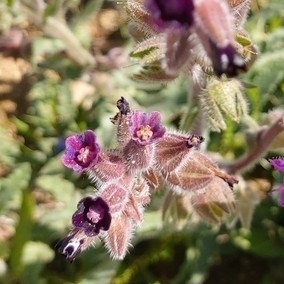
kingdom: Plantae
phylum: Tracheophyta
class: Magnoliopsida
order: Boraginales
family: Boraginaceae
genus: Anchusa
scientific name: Anchusa undulata
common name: Undulate alkanet
